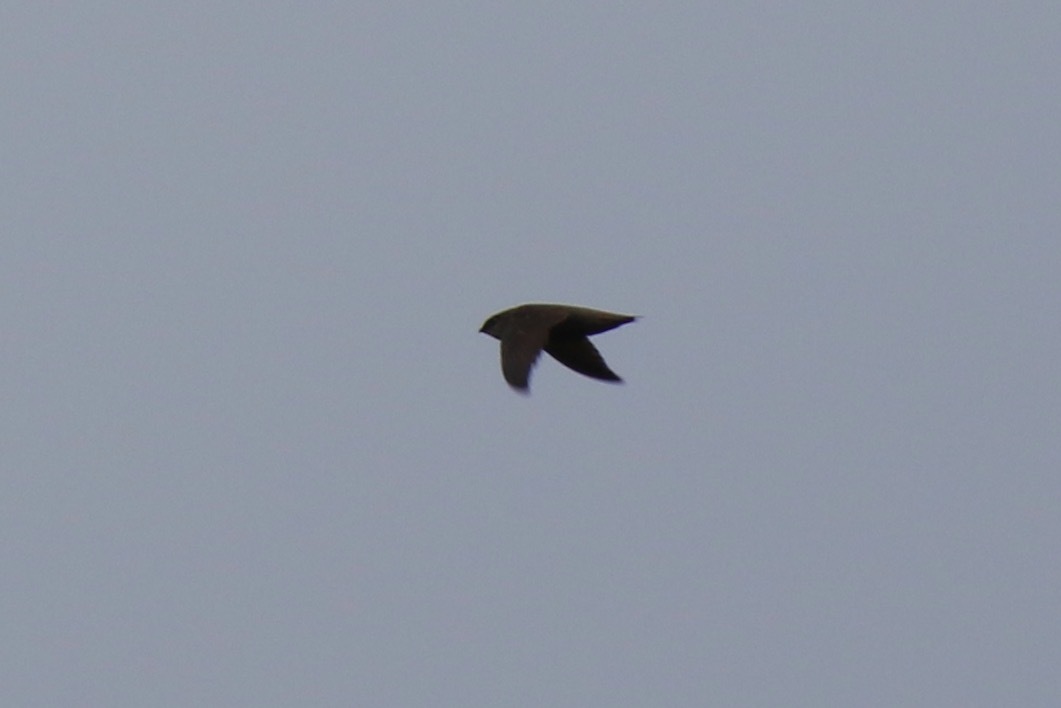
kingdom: Animalia
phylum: Chordata
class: Aves
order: Apodiformes
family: Apodidae
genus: Chaetura
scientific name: Chaetura pelagica
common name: Chimney swift
